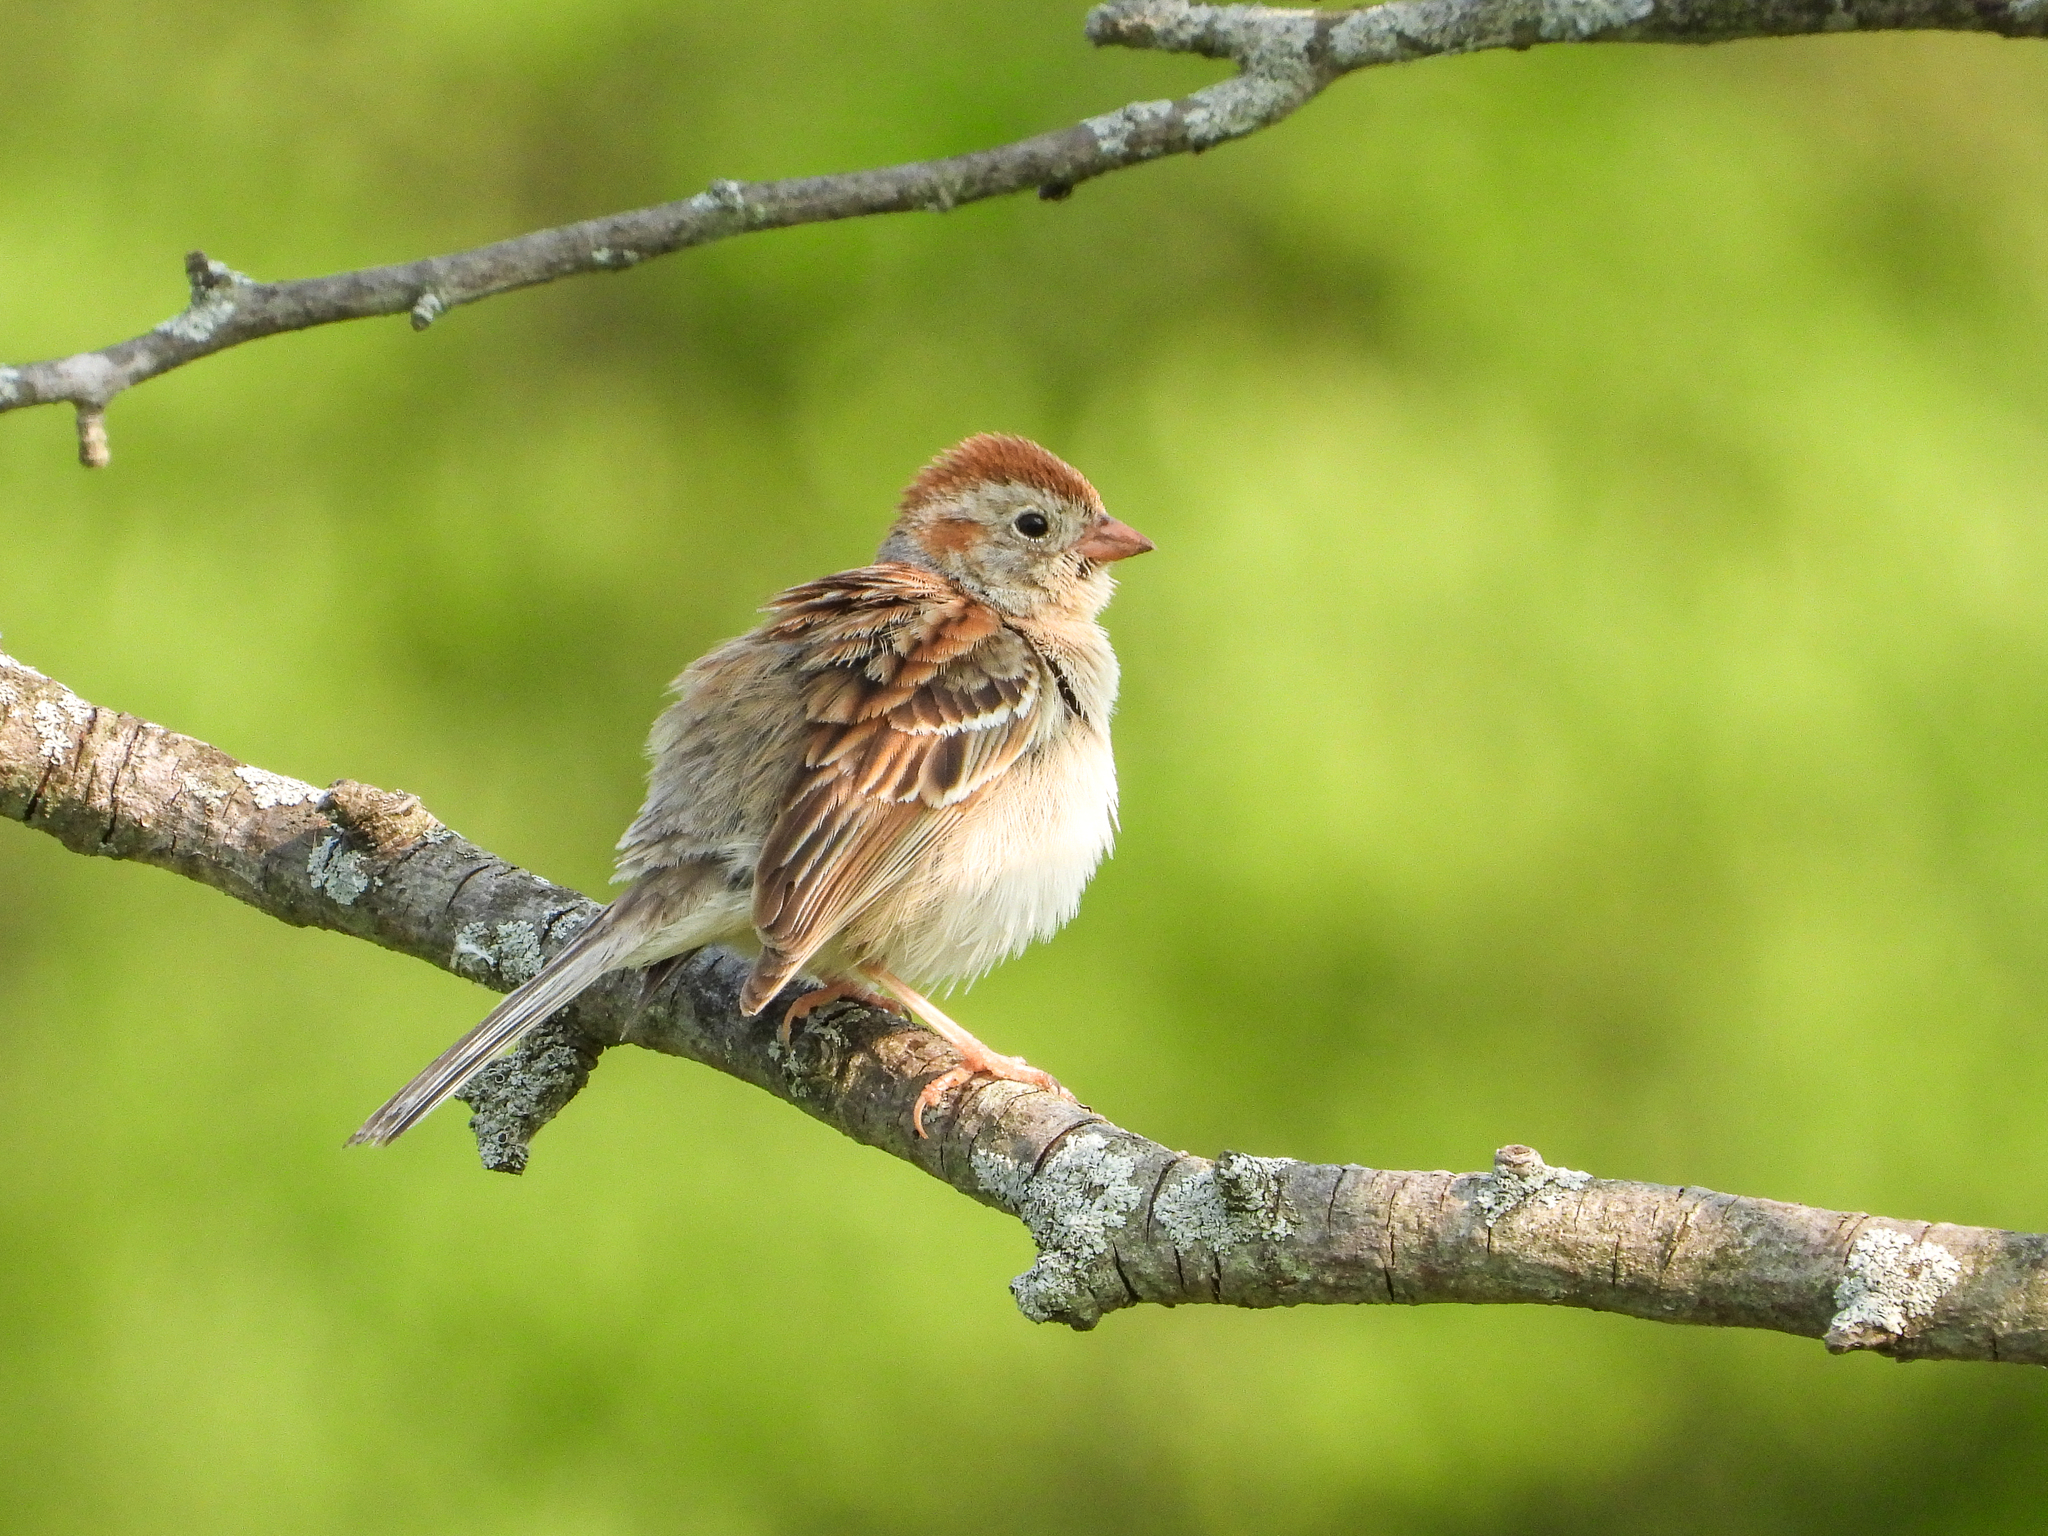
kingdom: Animalia
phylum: Chordata
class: Aves
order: Passeriformes
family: Passerellidae
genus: Spizella
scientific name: Spizella pusilla
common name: Field sparrow
